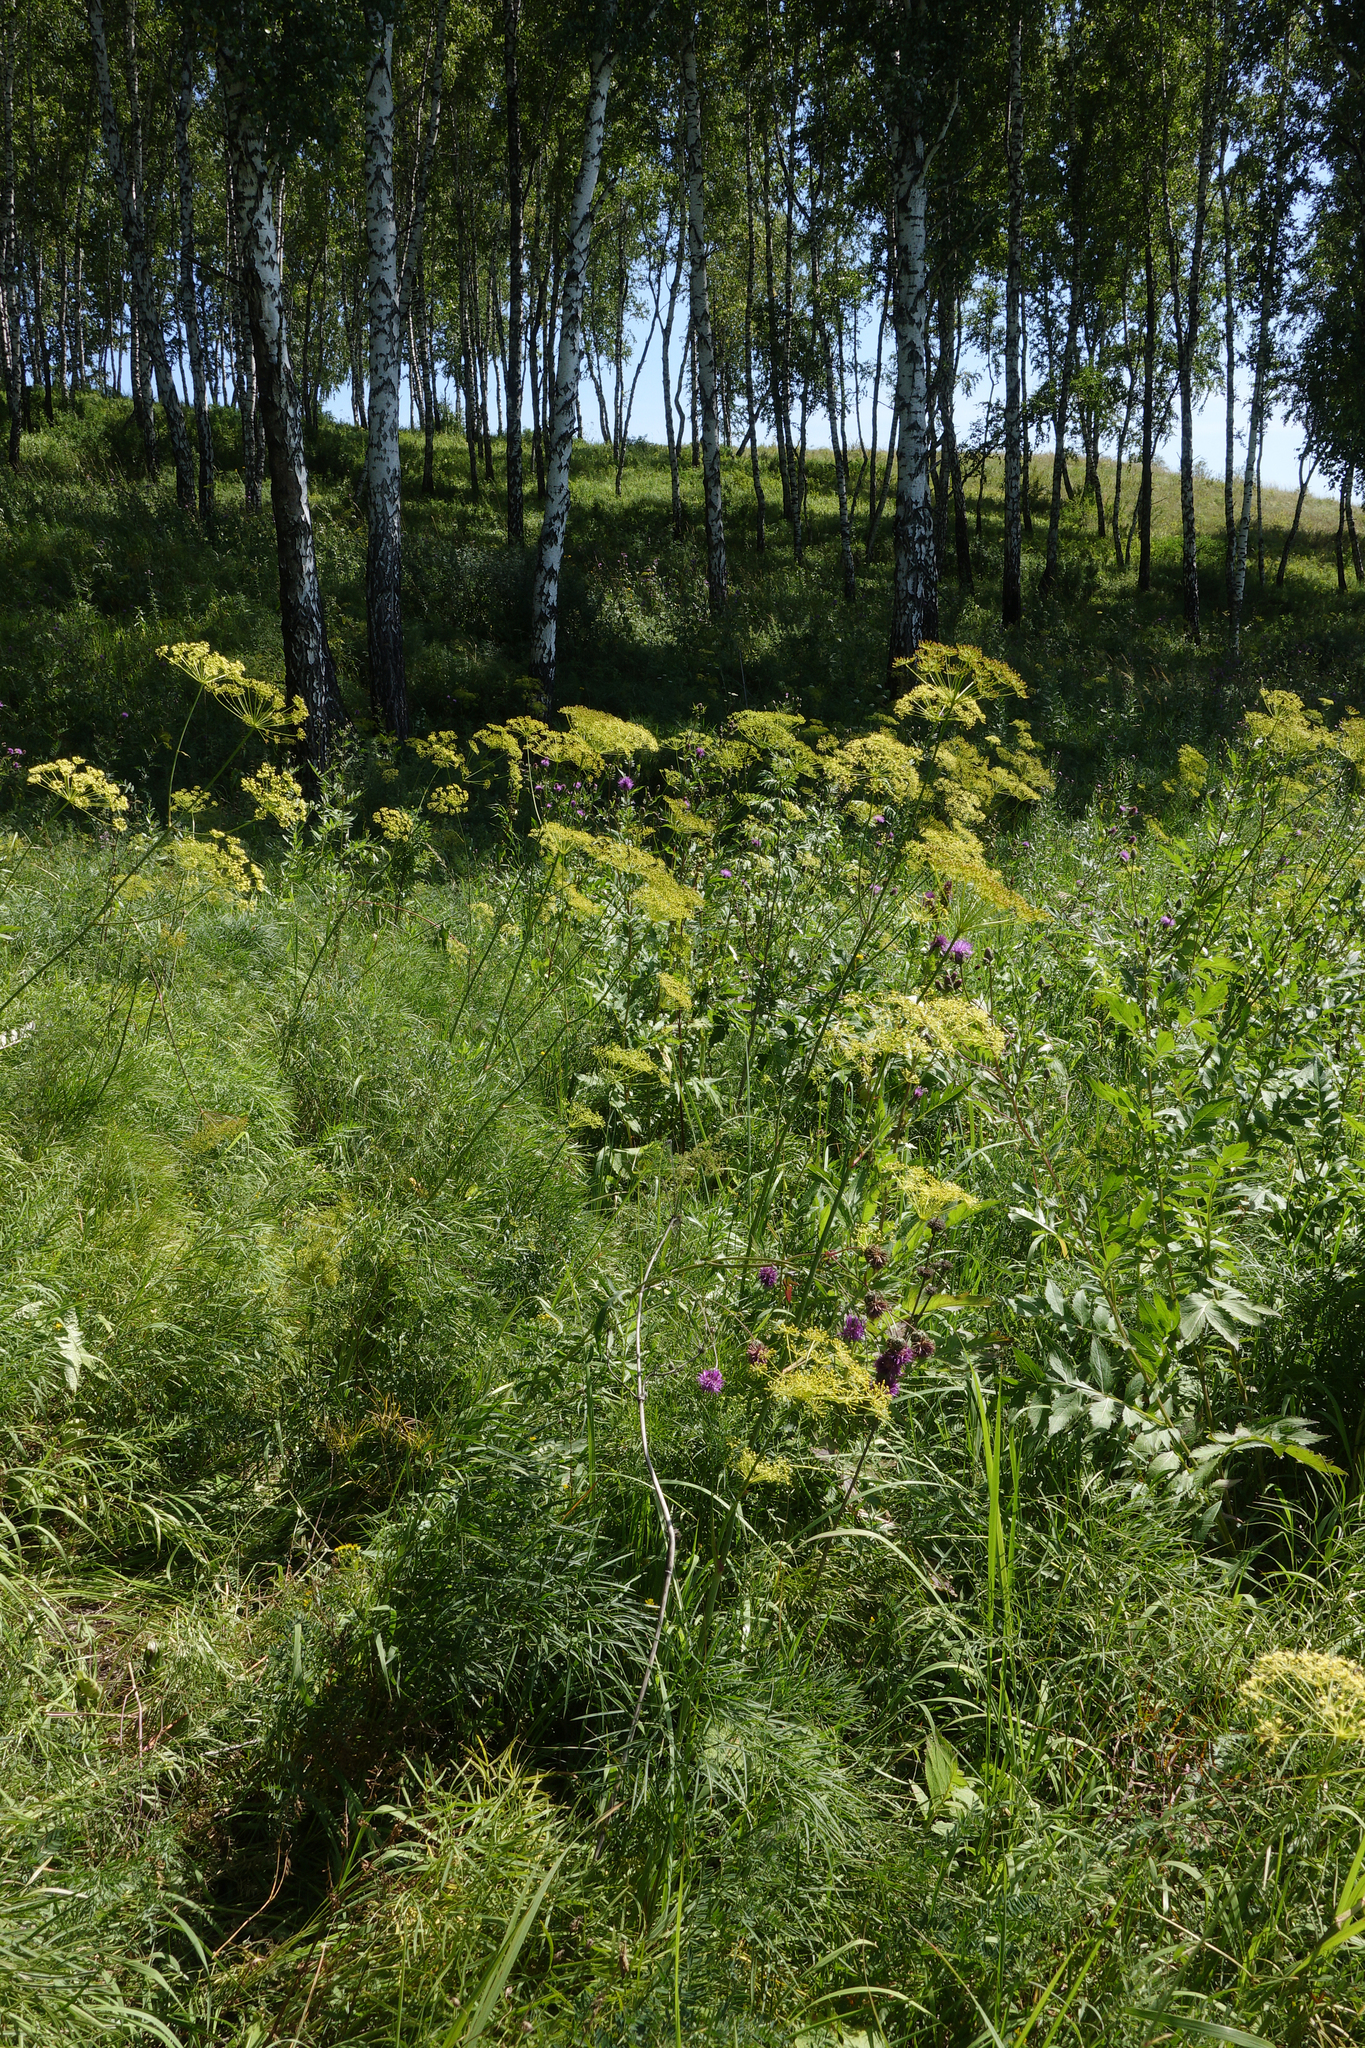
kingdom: Plantae
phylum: Tracheophyta
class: Magnoliopsida
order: Apiales
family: Apiaceae
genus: Peucedanum
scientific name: Peucedanum morisonii
